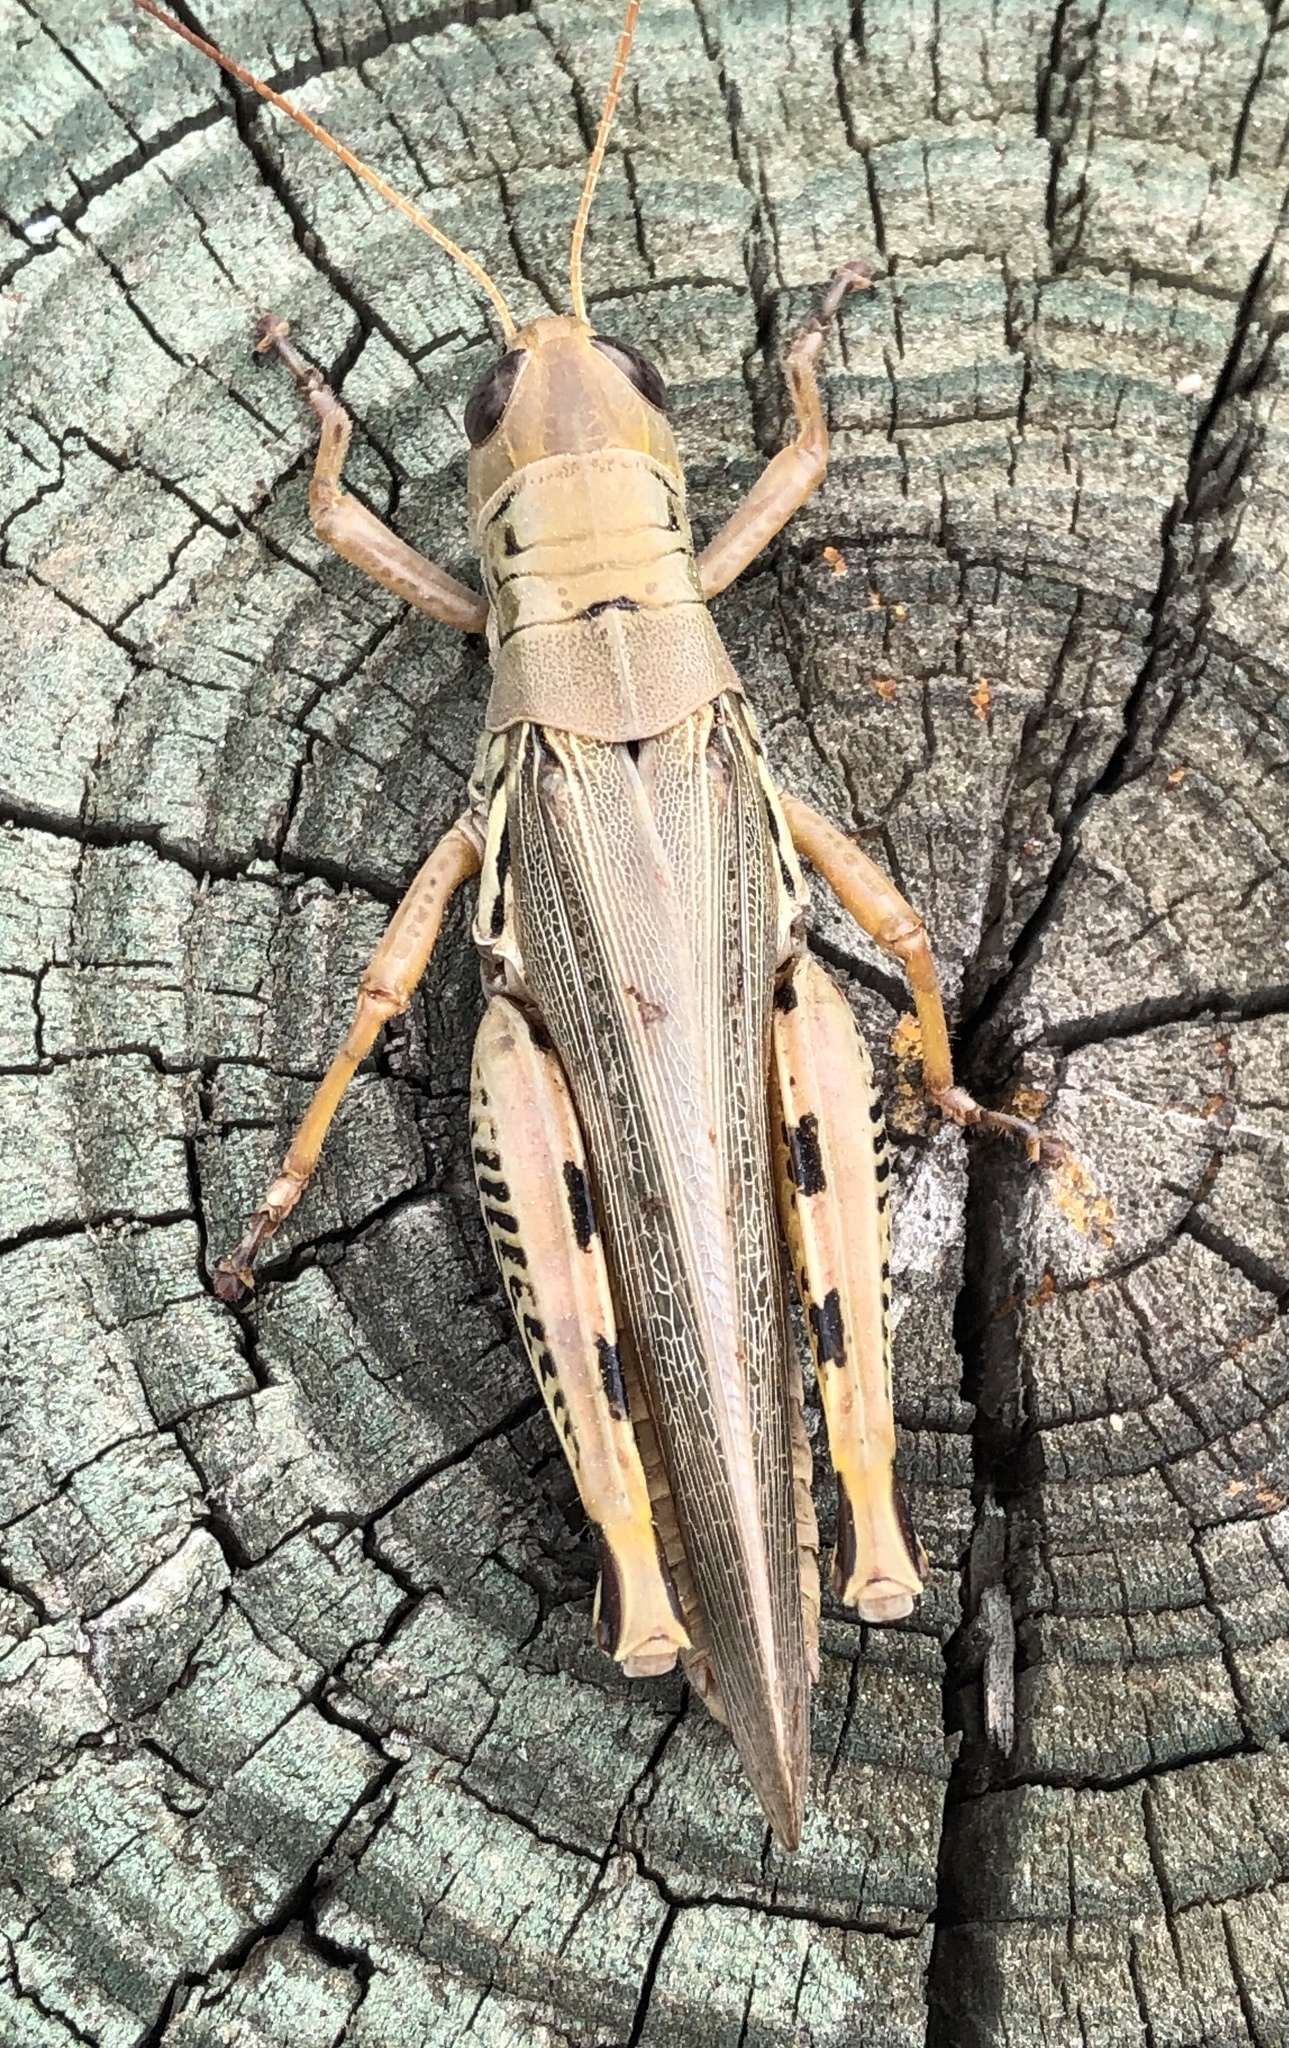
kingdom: Animalia
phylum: Arthropoda
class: Insecta
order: Orthoptera
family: Acrididae
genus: Melanoplus
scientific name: Melanoplus differentialis
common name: Differential grasshopper
